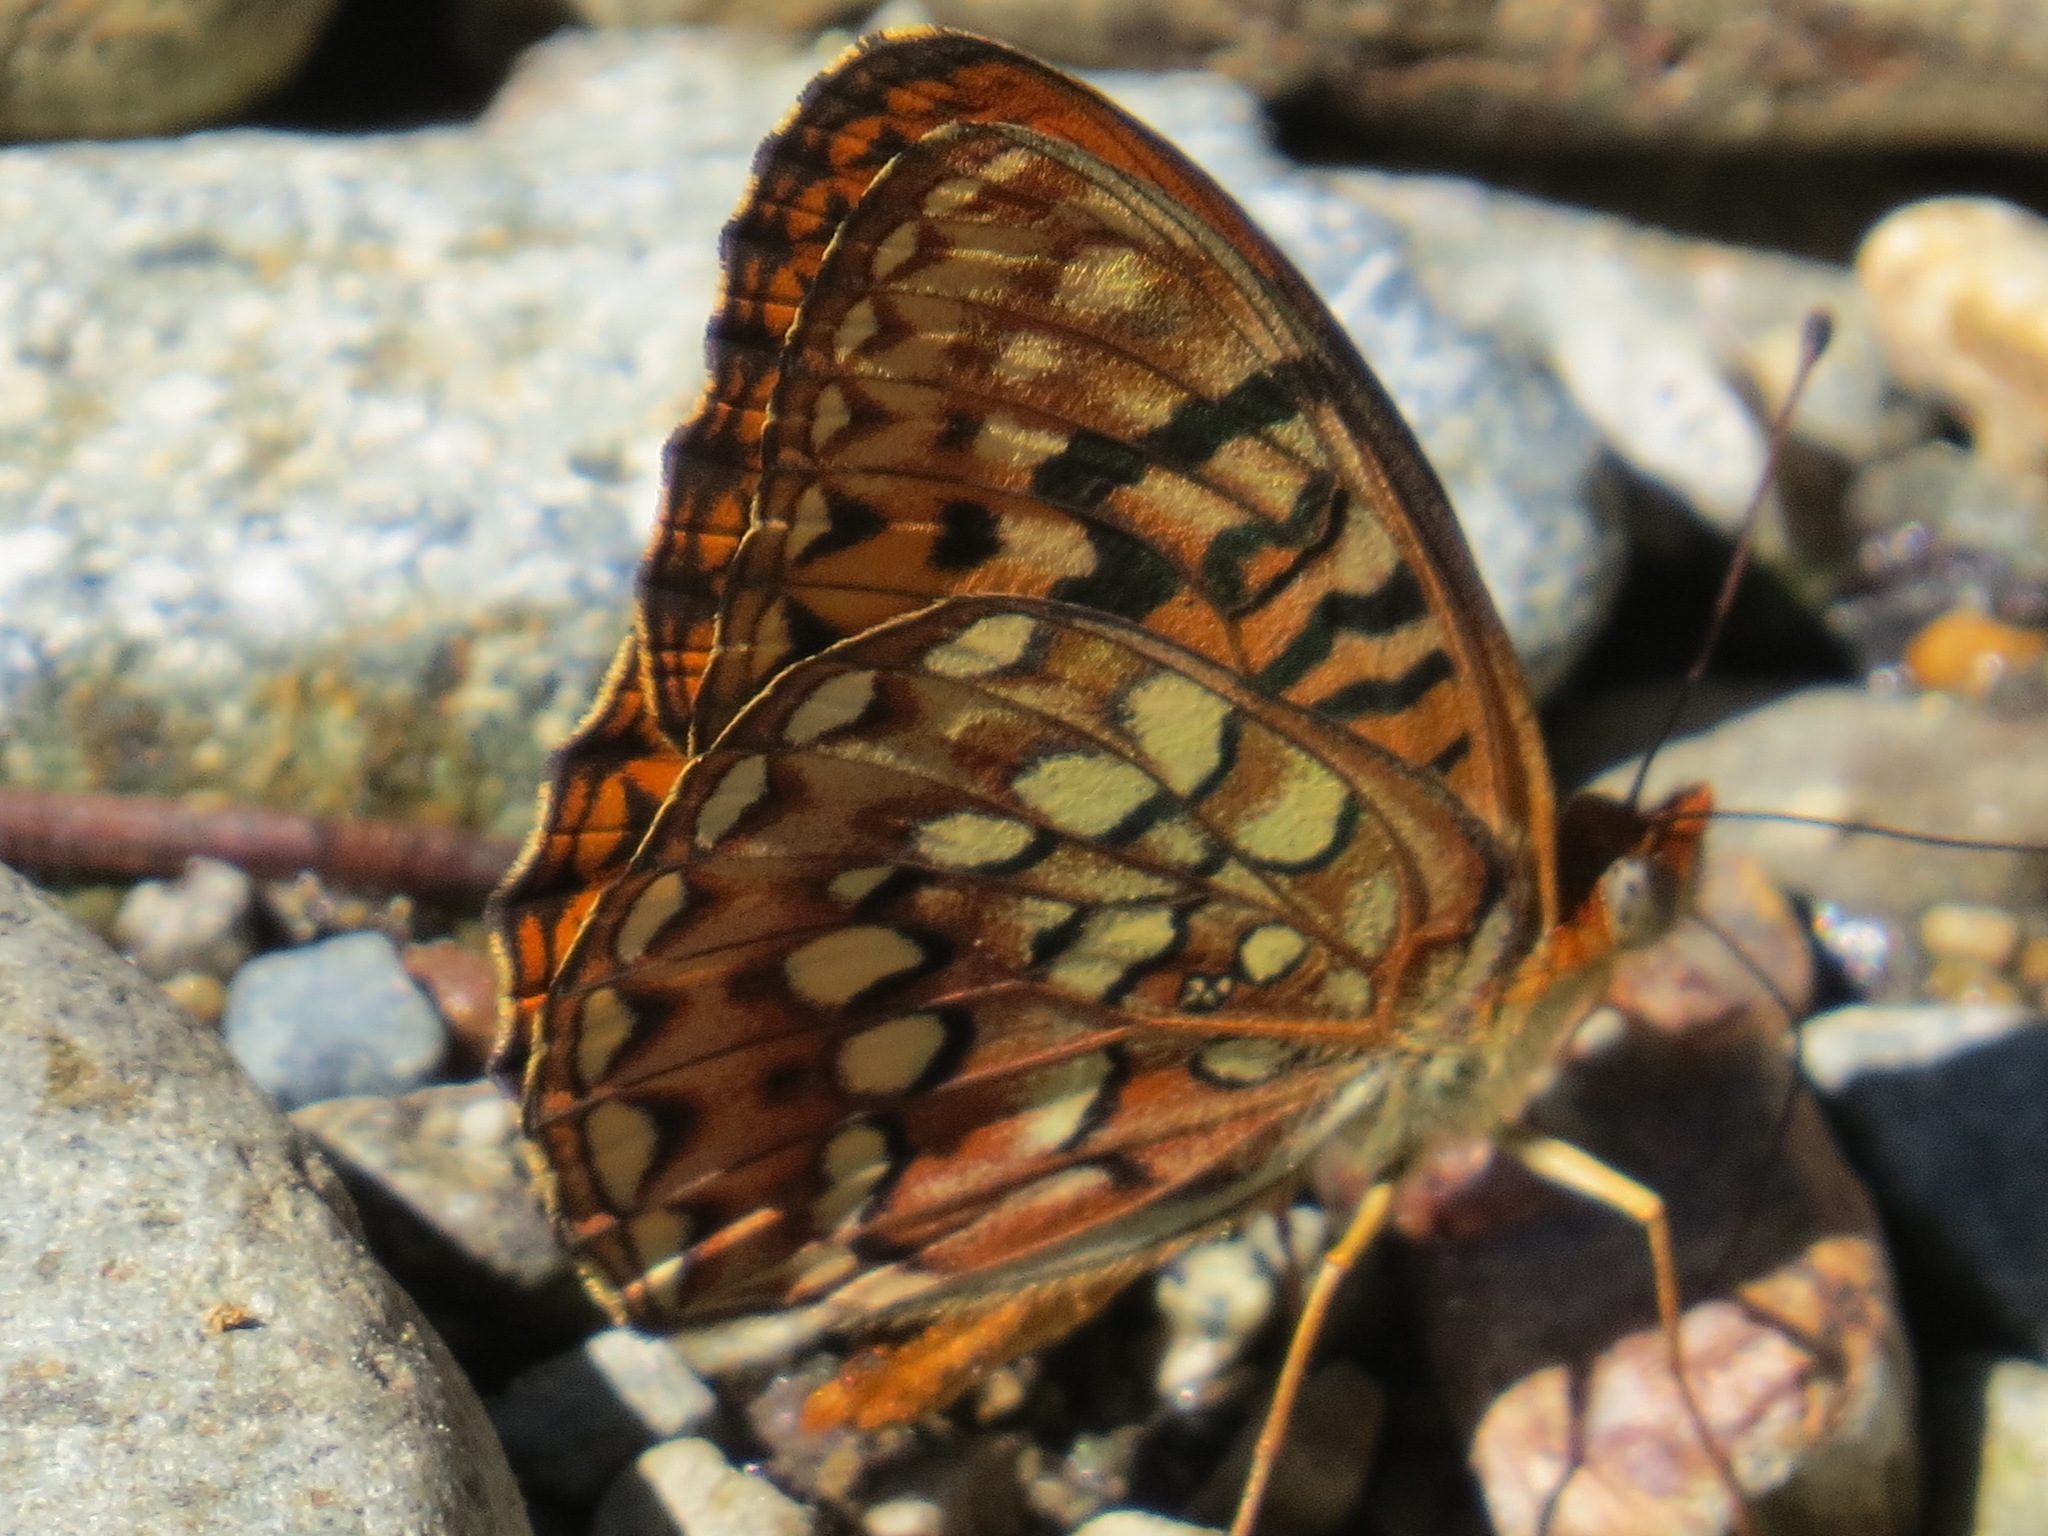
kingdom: Animalia
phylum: Arthropoda
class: Insecta
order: Lepidoptera
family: Nymphalidae
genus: Speyeria
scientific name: Speyeria hydaspe
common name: Hydaspe fritillary
